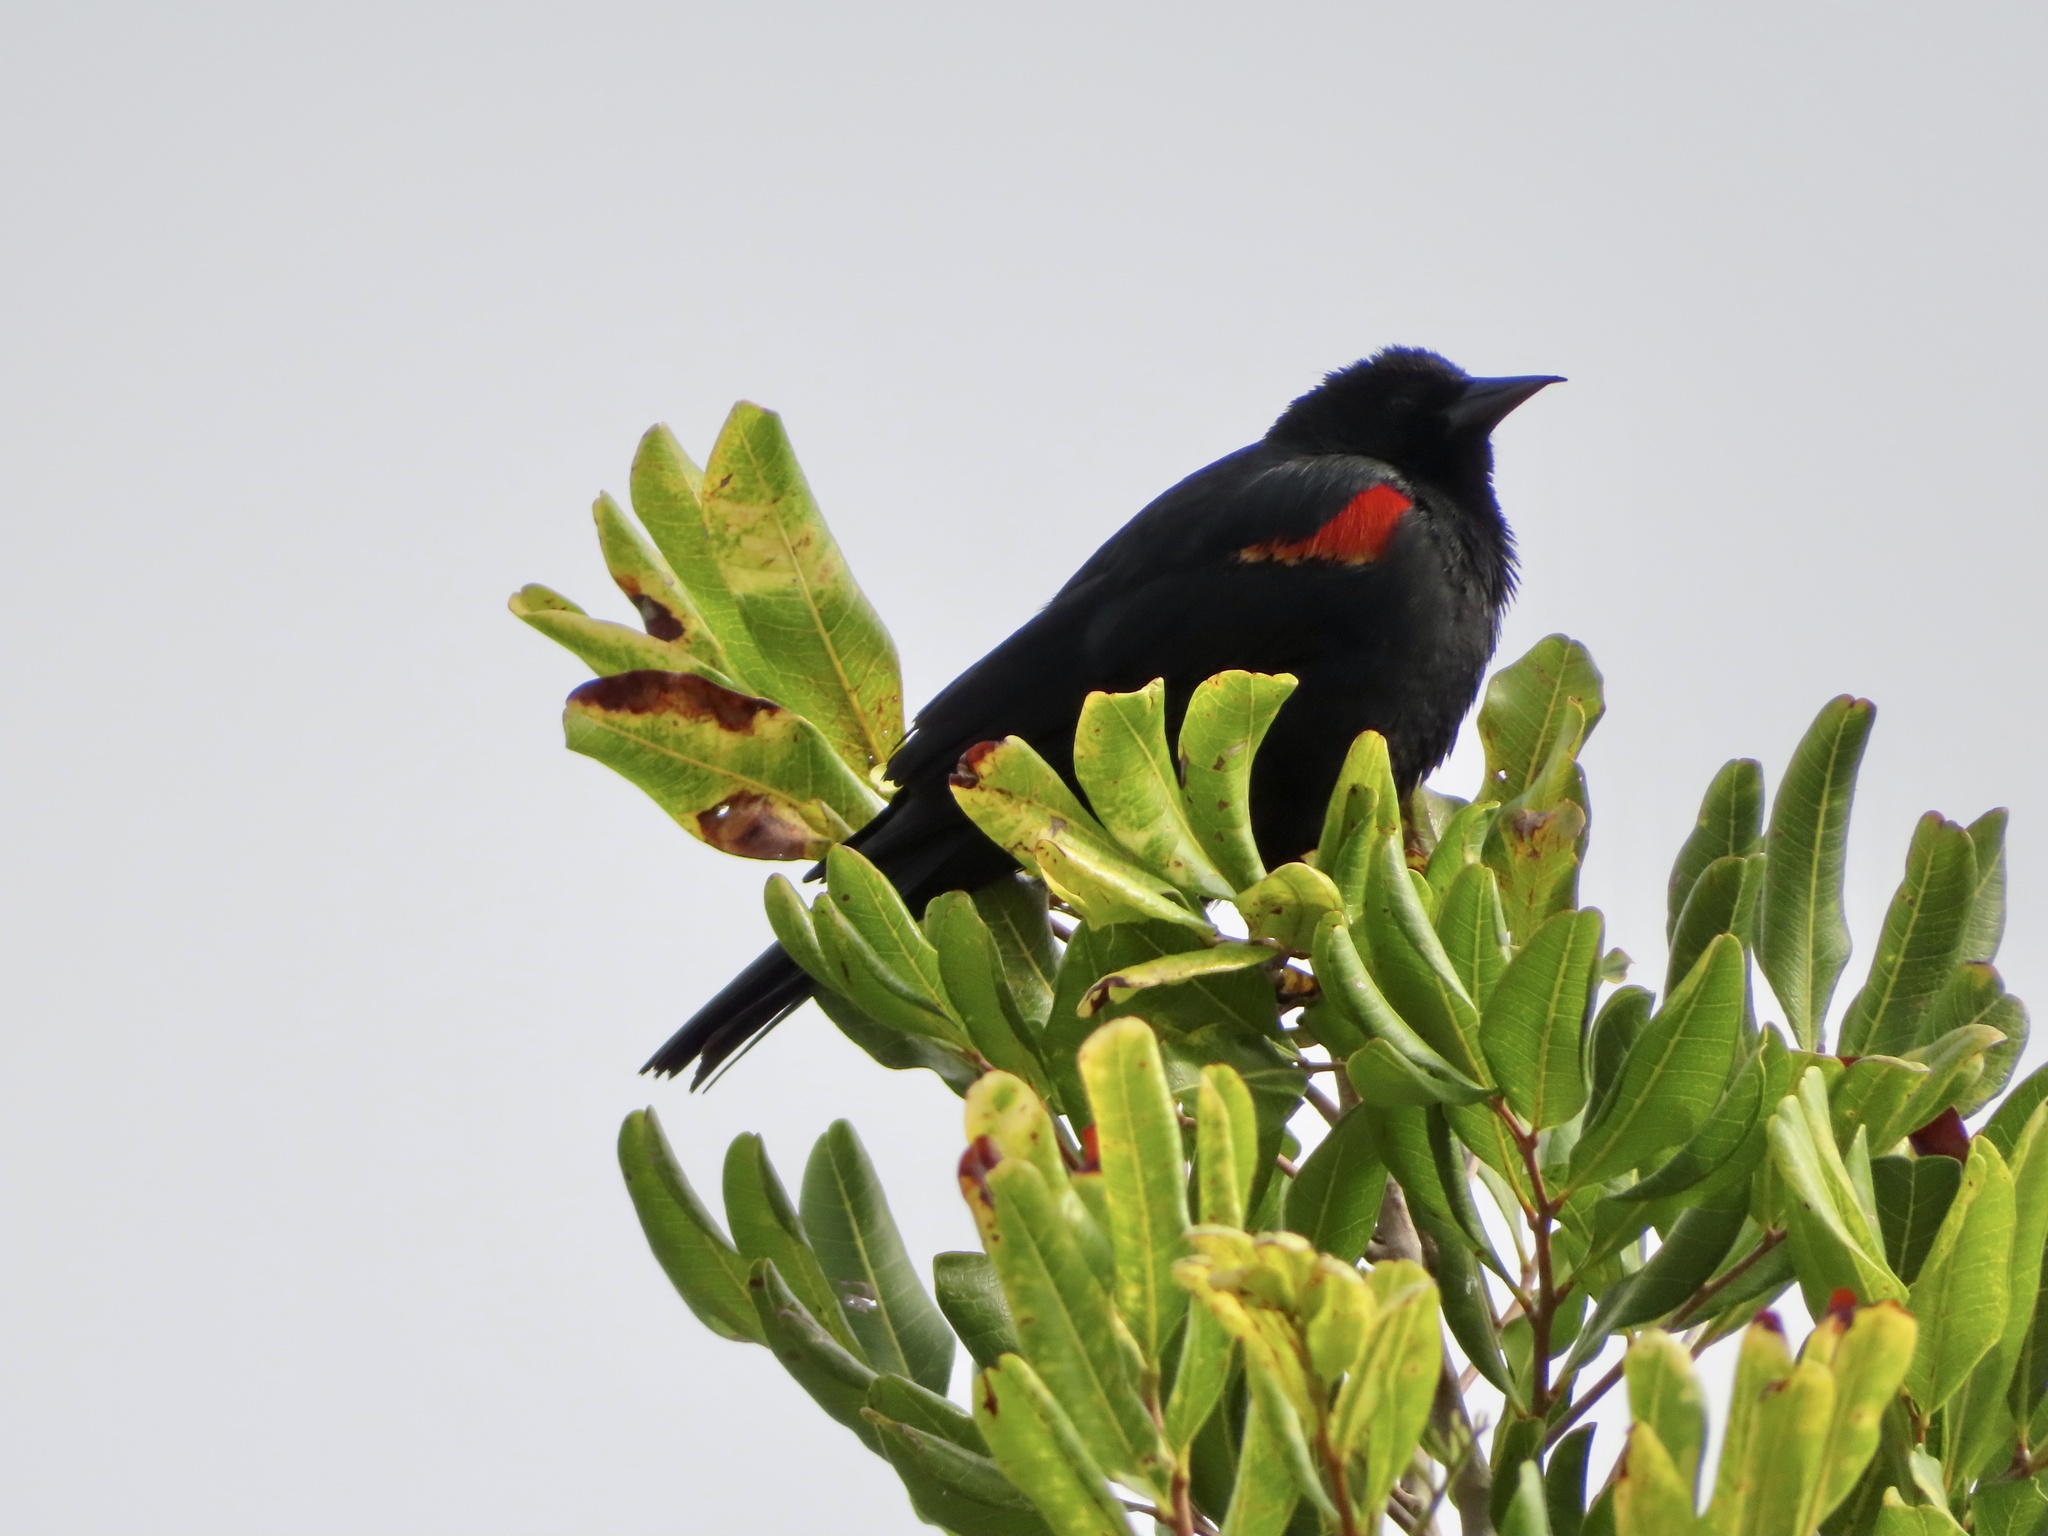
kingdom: Animalia
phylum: Chordata
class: Aves
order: Passeriformes
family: Icteridae
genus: Agelaius
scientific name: Agelaius phoeniceus
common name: Red-winged blackbird
